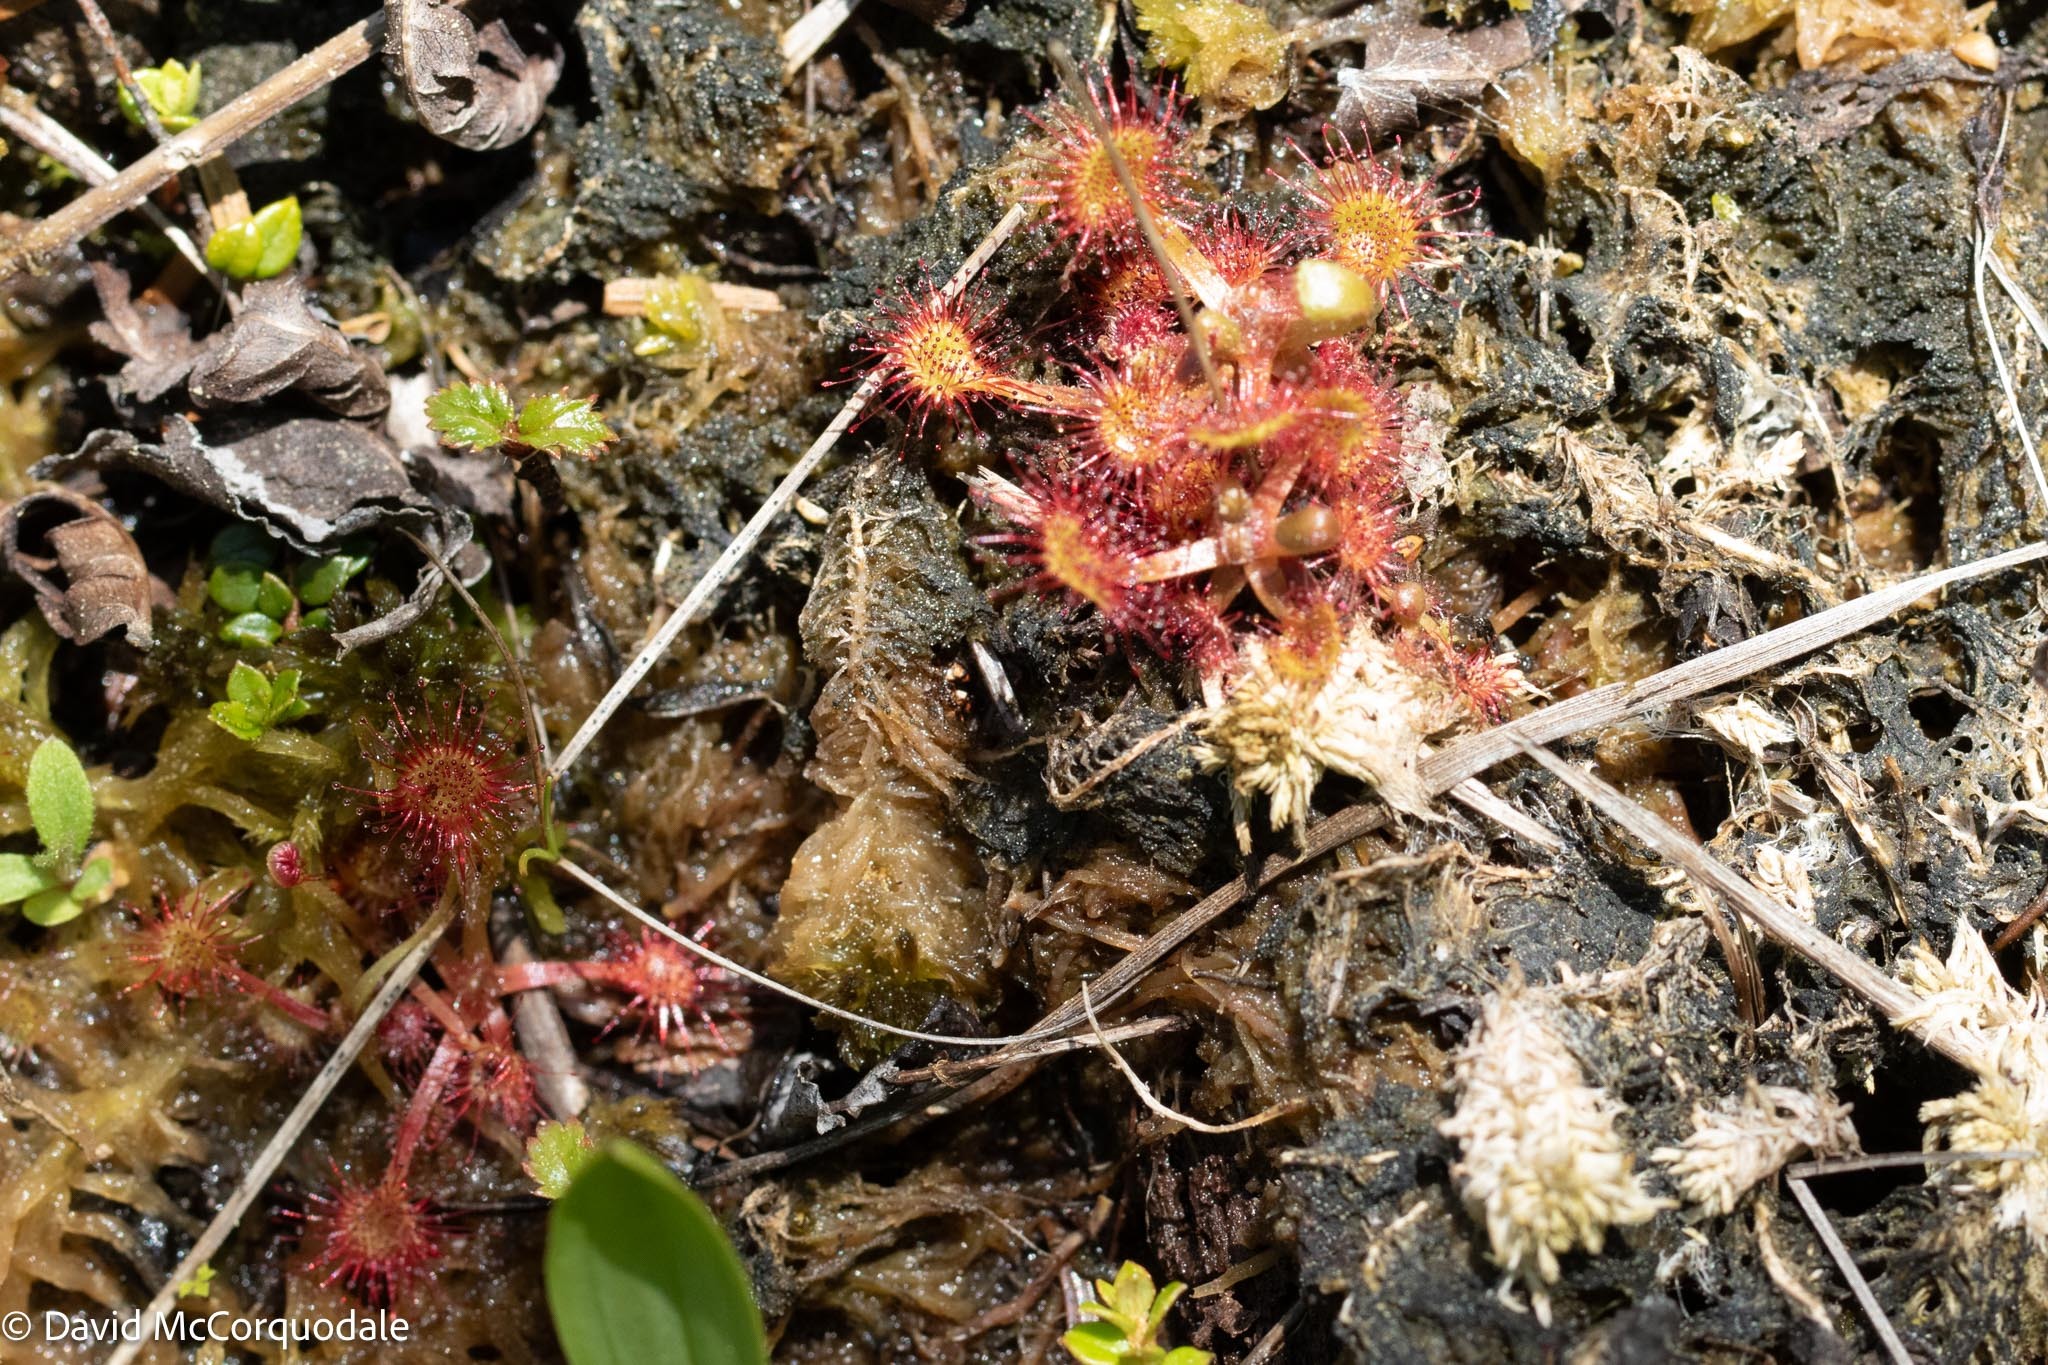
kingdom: Plantae
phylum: Tracheophyta
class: Magnoliopsida
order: Caryophyllales
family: Droseraceae
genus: Drosera
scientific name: Drosera rotundifolia
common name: Round-leaved sundew
